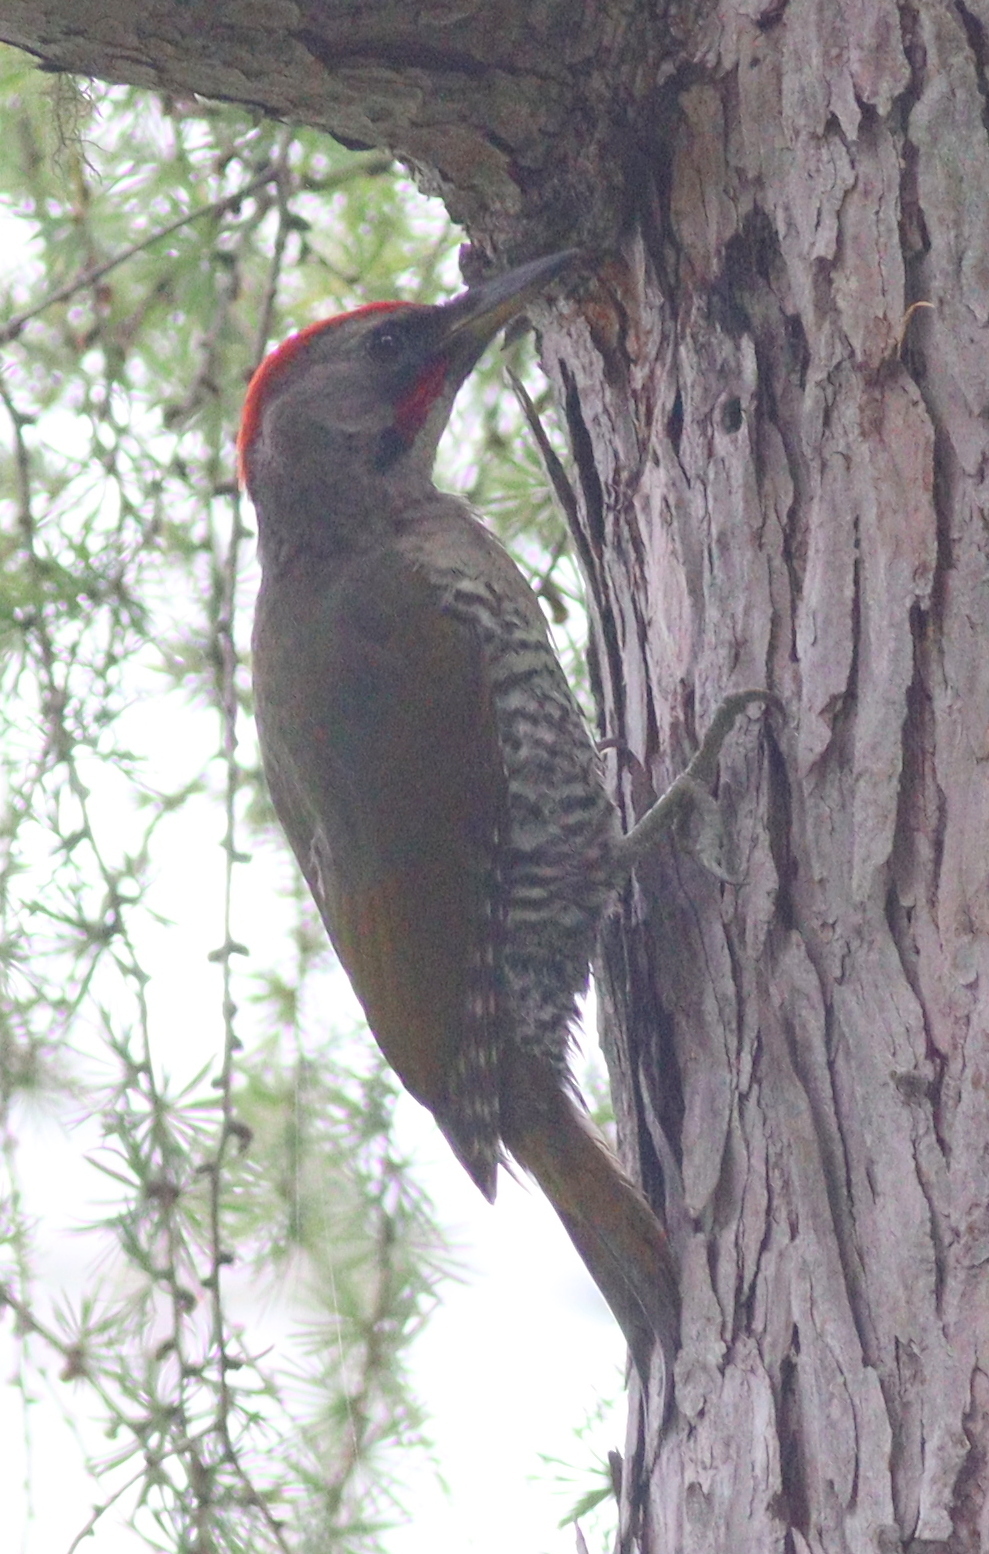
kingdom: Animalia
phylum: Chordata
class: Aves
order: Piciformes
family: Picidae
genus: Picus
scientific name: Picus awokera
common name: Japanese green woodpecker
